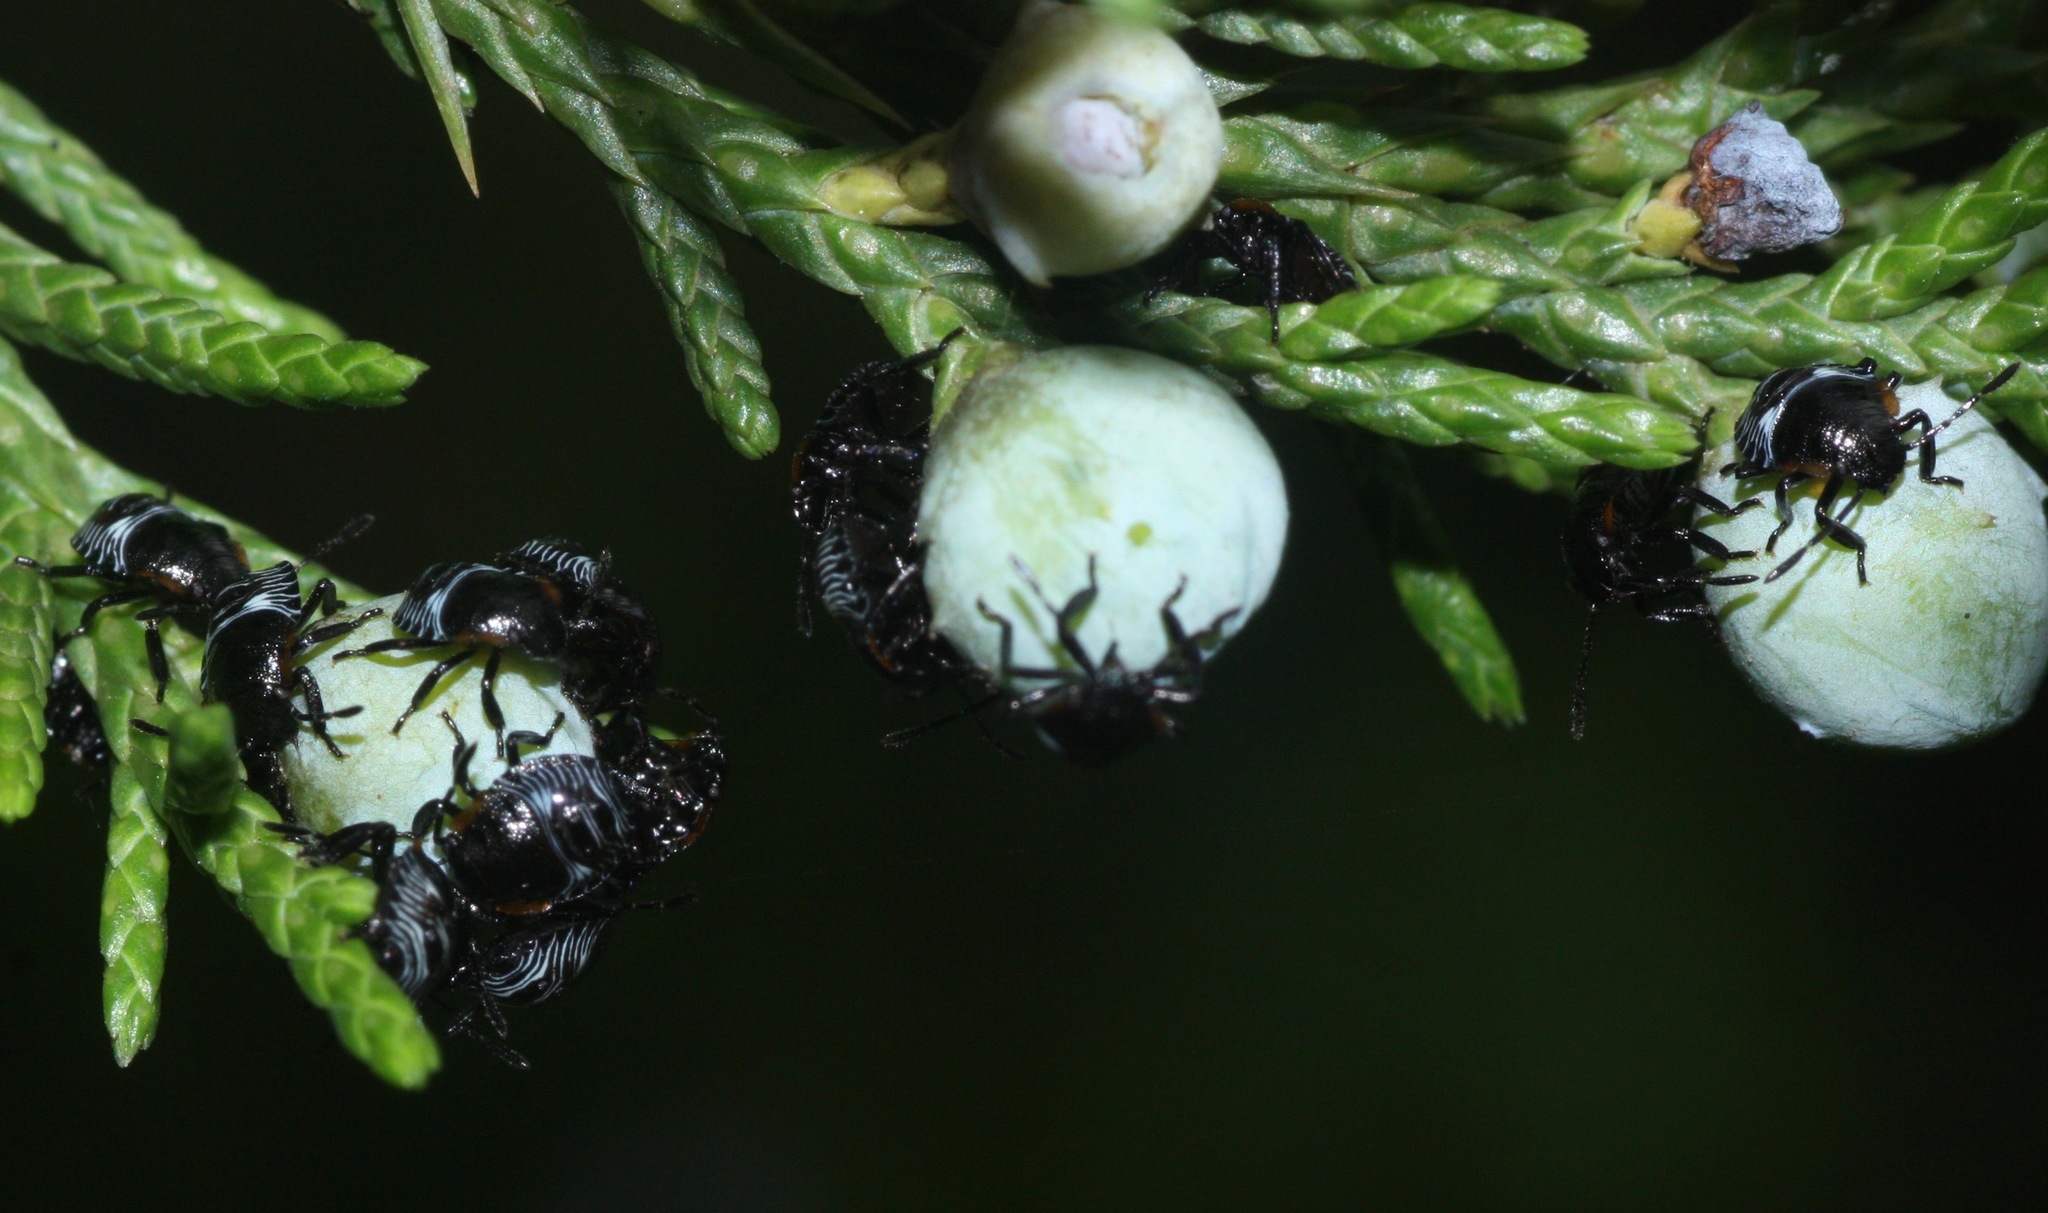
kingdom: Animalia
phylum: Arthropoda
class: Insecta
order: Hemiptera
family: Pentatomidae
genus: Chinavia
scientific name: Chinavia hilaris
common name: Green stink bug
